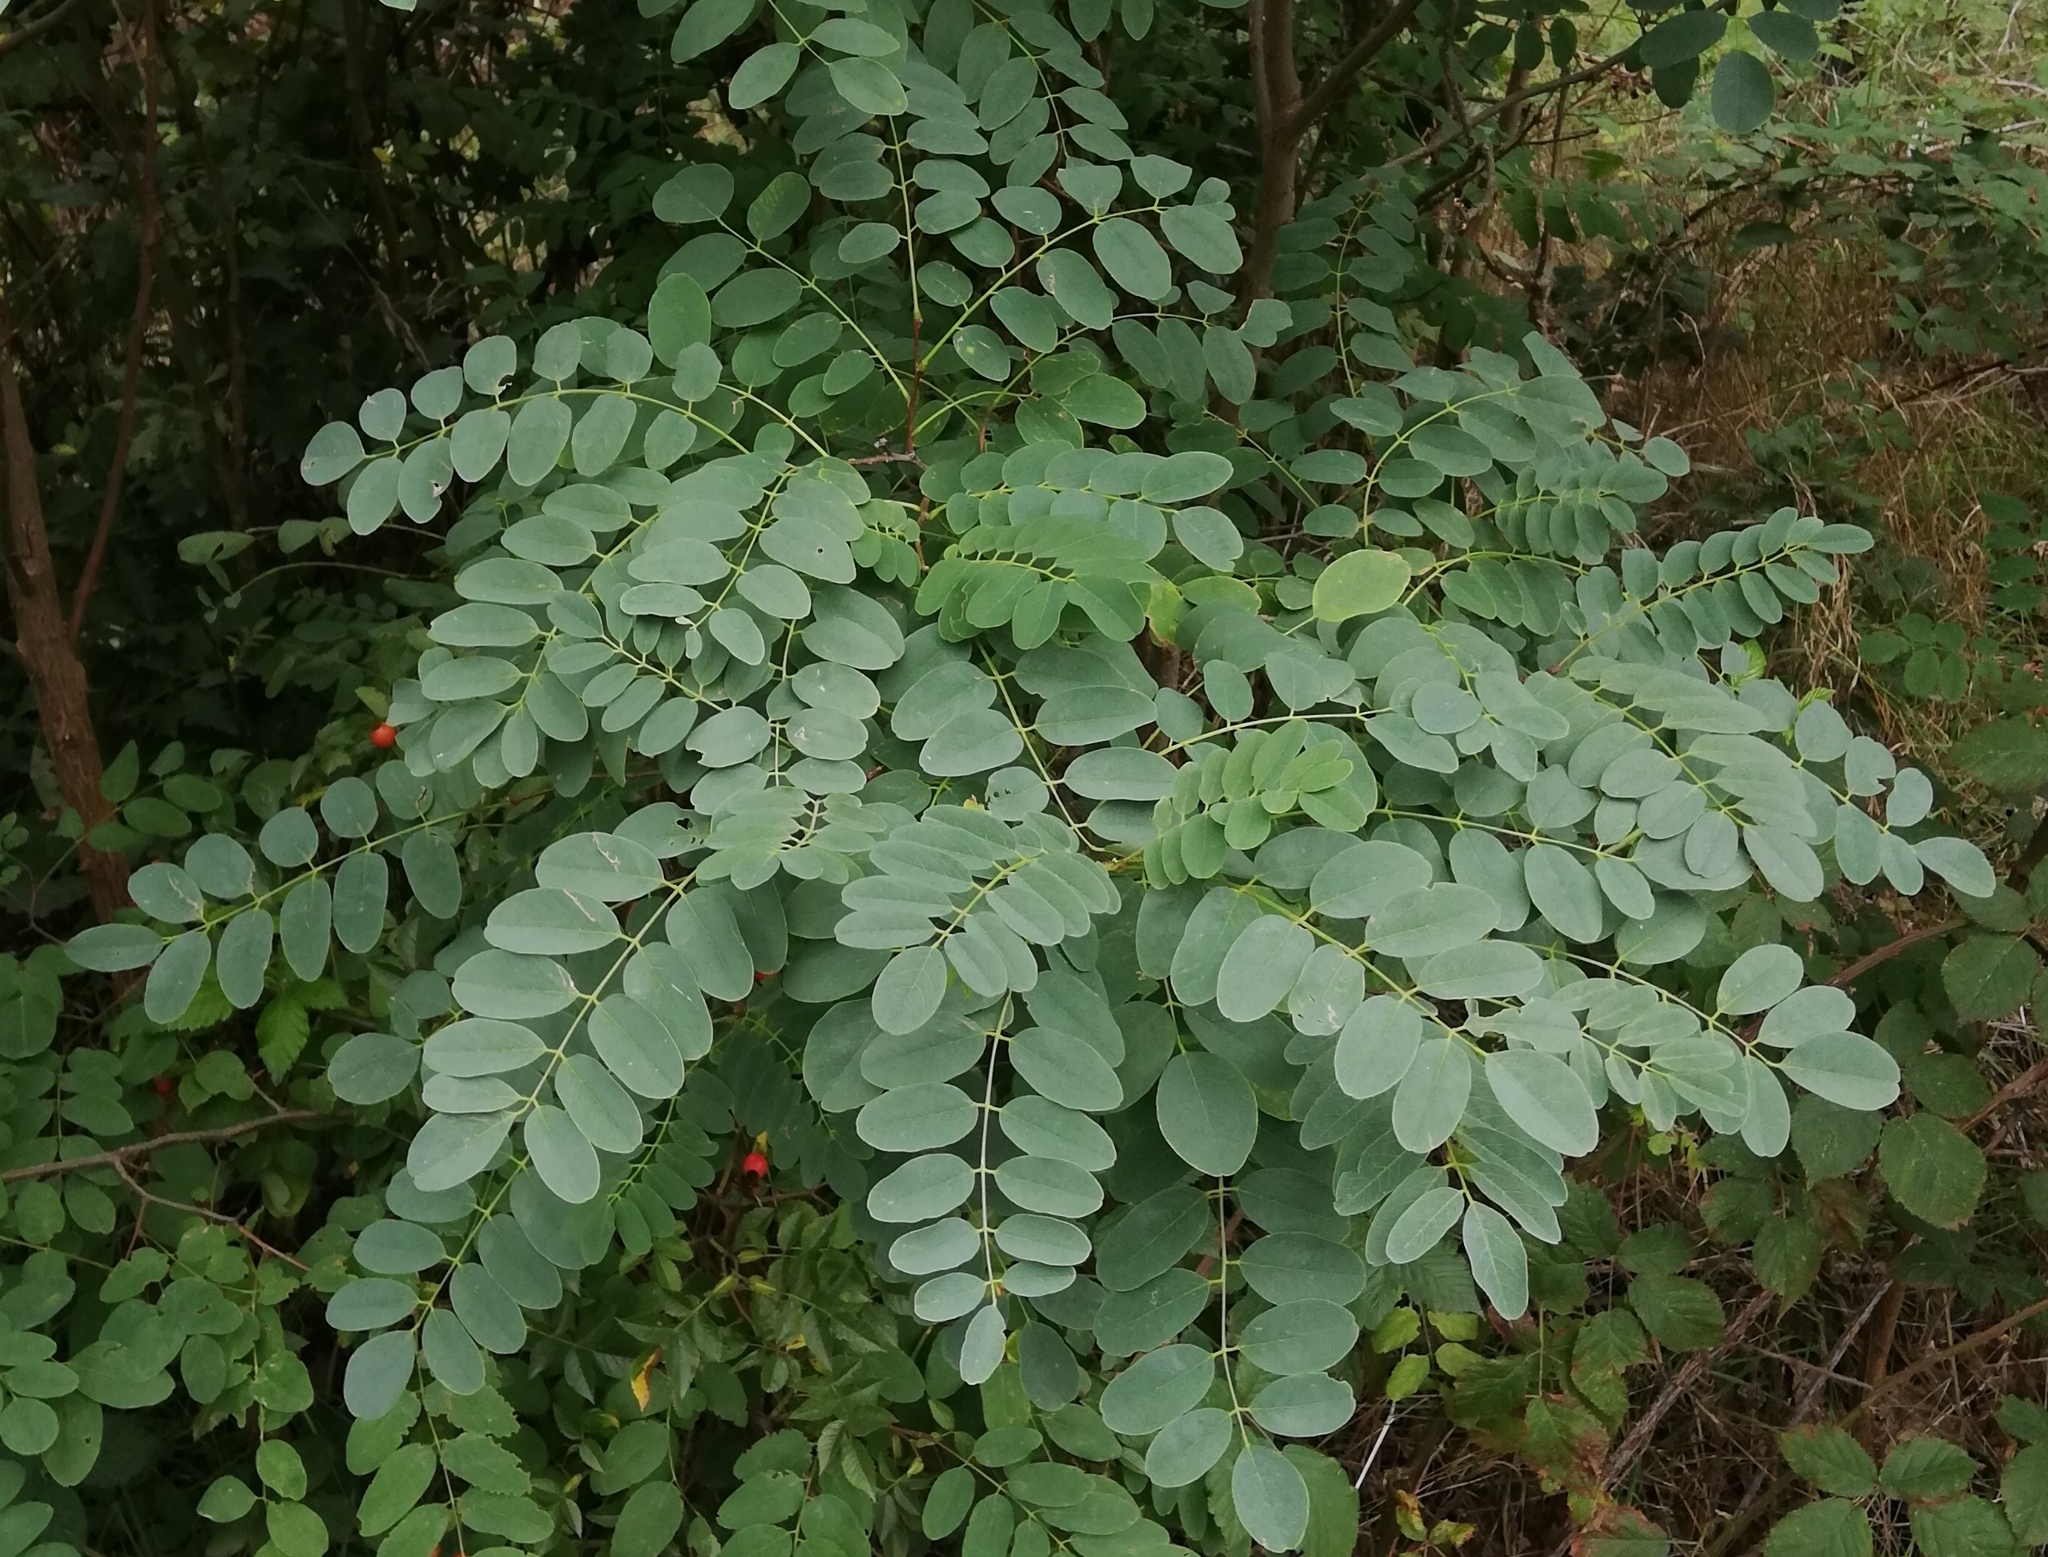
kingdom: Plantae
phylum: Tracheophyta
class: Magnoliopsida
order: Fabales
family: Fabaceae
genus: Robinia
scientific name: Robinia pseudoacacia
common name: Black locust
